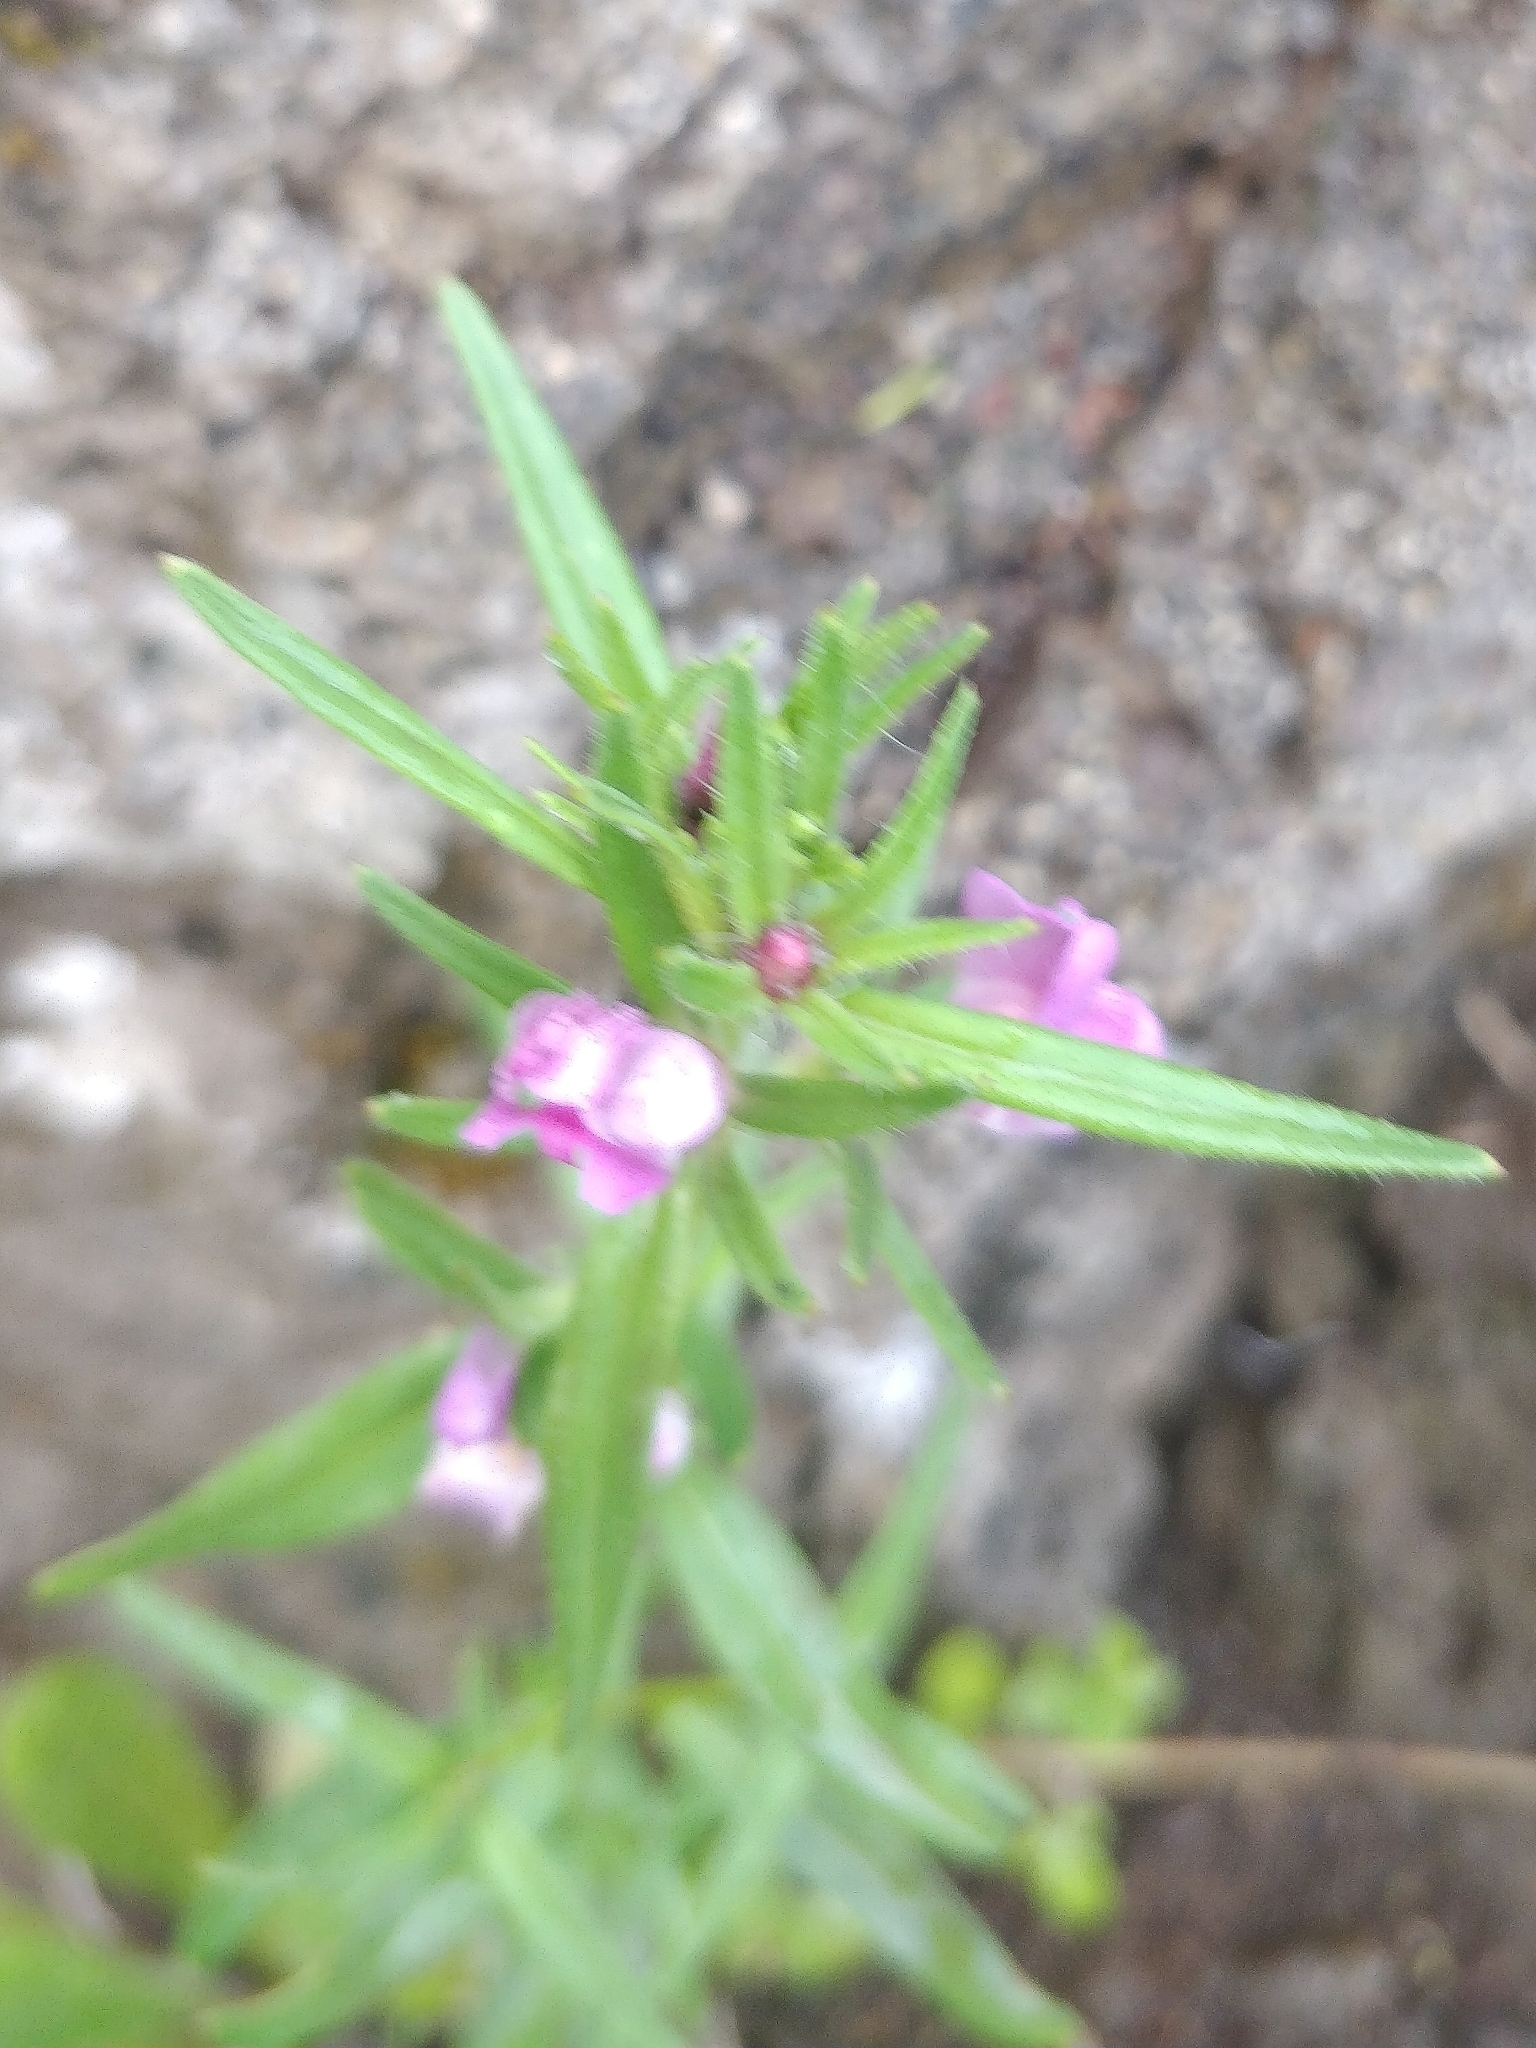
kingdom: Plantae
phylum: Tracheophyta
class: Magnoliopsida
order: Lamiales
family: Plantaginaceae
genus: Misopates
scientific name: Misopates orontium
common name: Weasel's-snout
